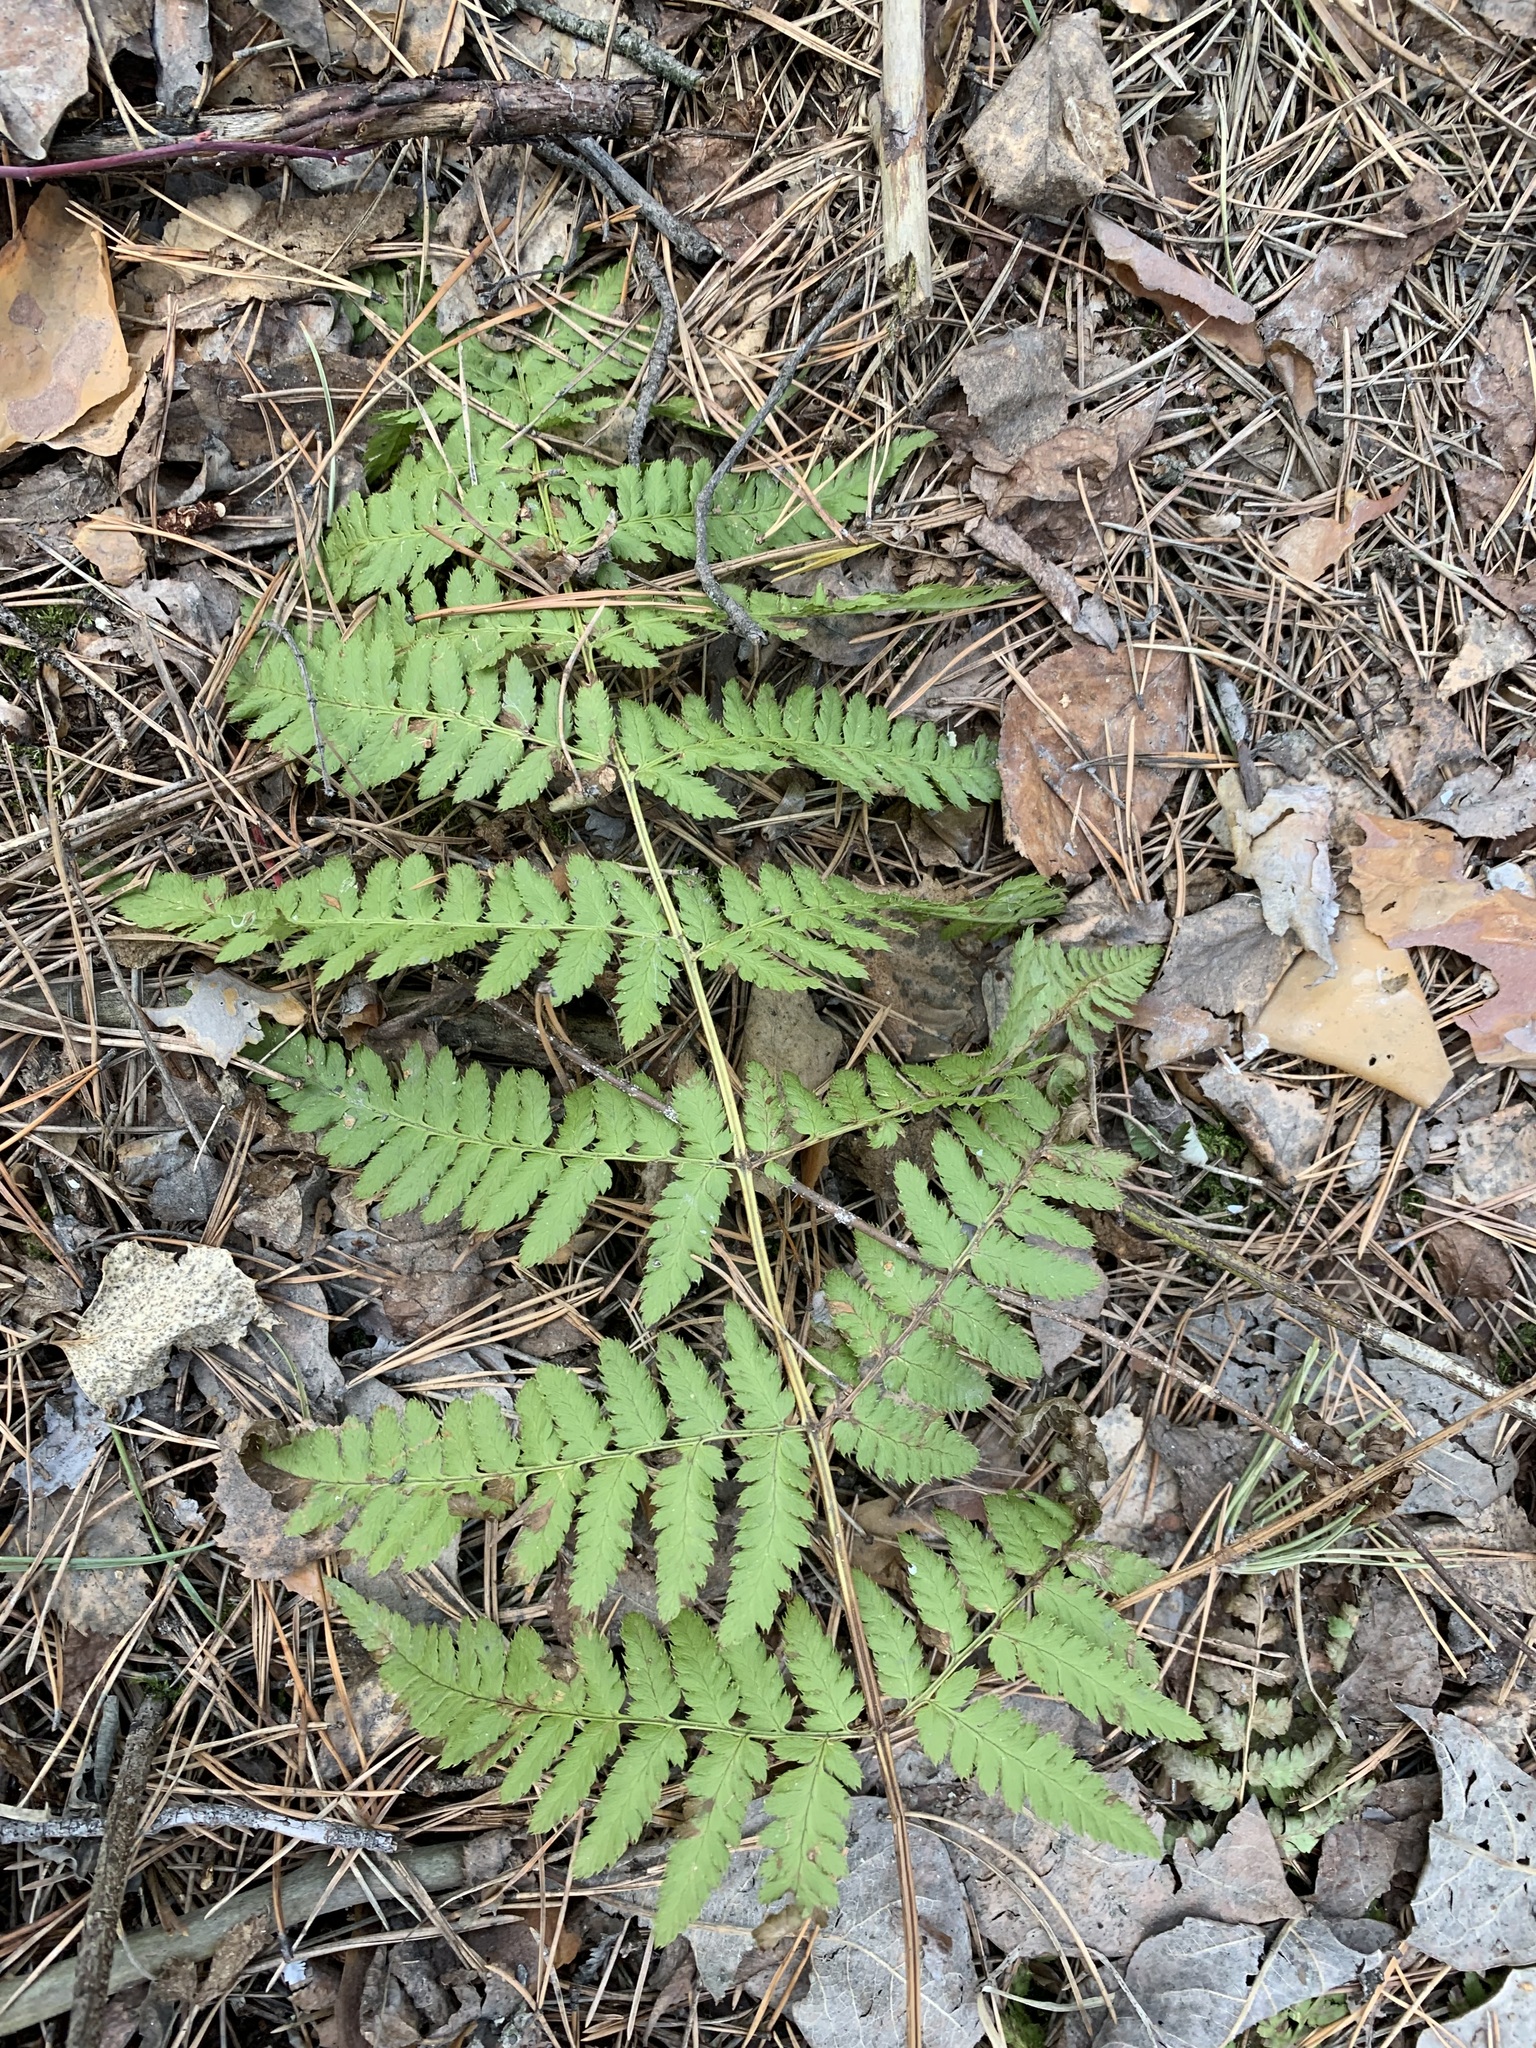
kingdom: Plantae
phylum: Tracheophyta
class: Polypodiopsida
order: Polypodiales
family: Dryopteridaceae
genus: Dryopteris
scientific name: Dryopteris carthusiana
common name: Narrow buckler-fern
